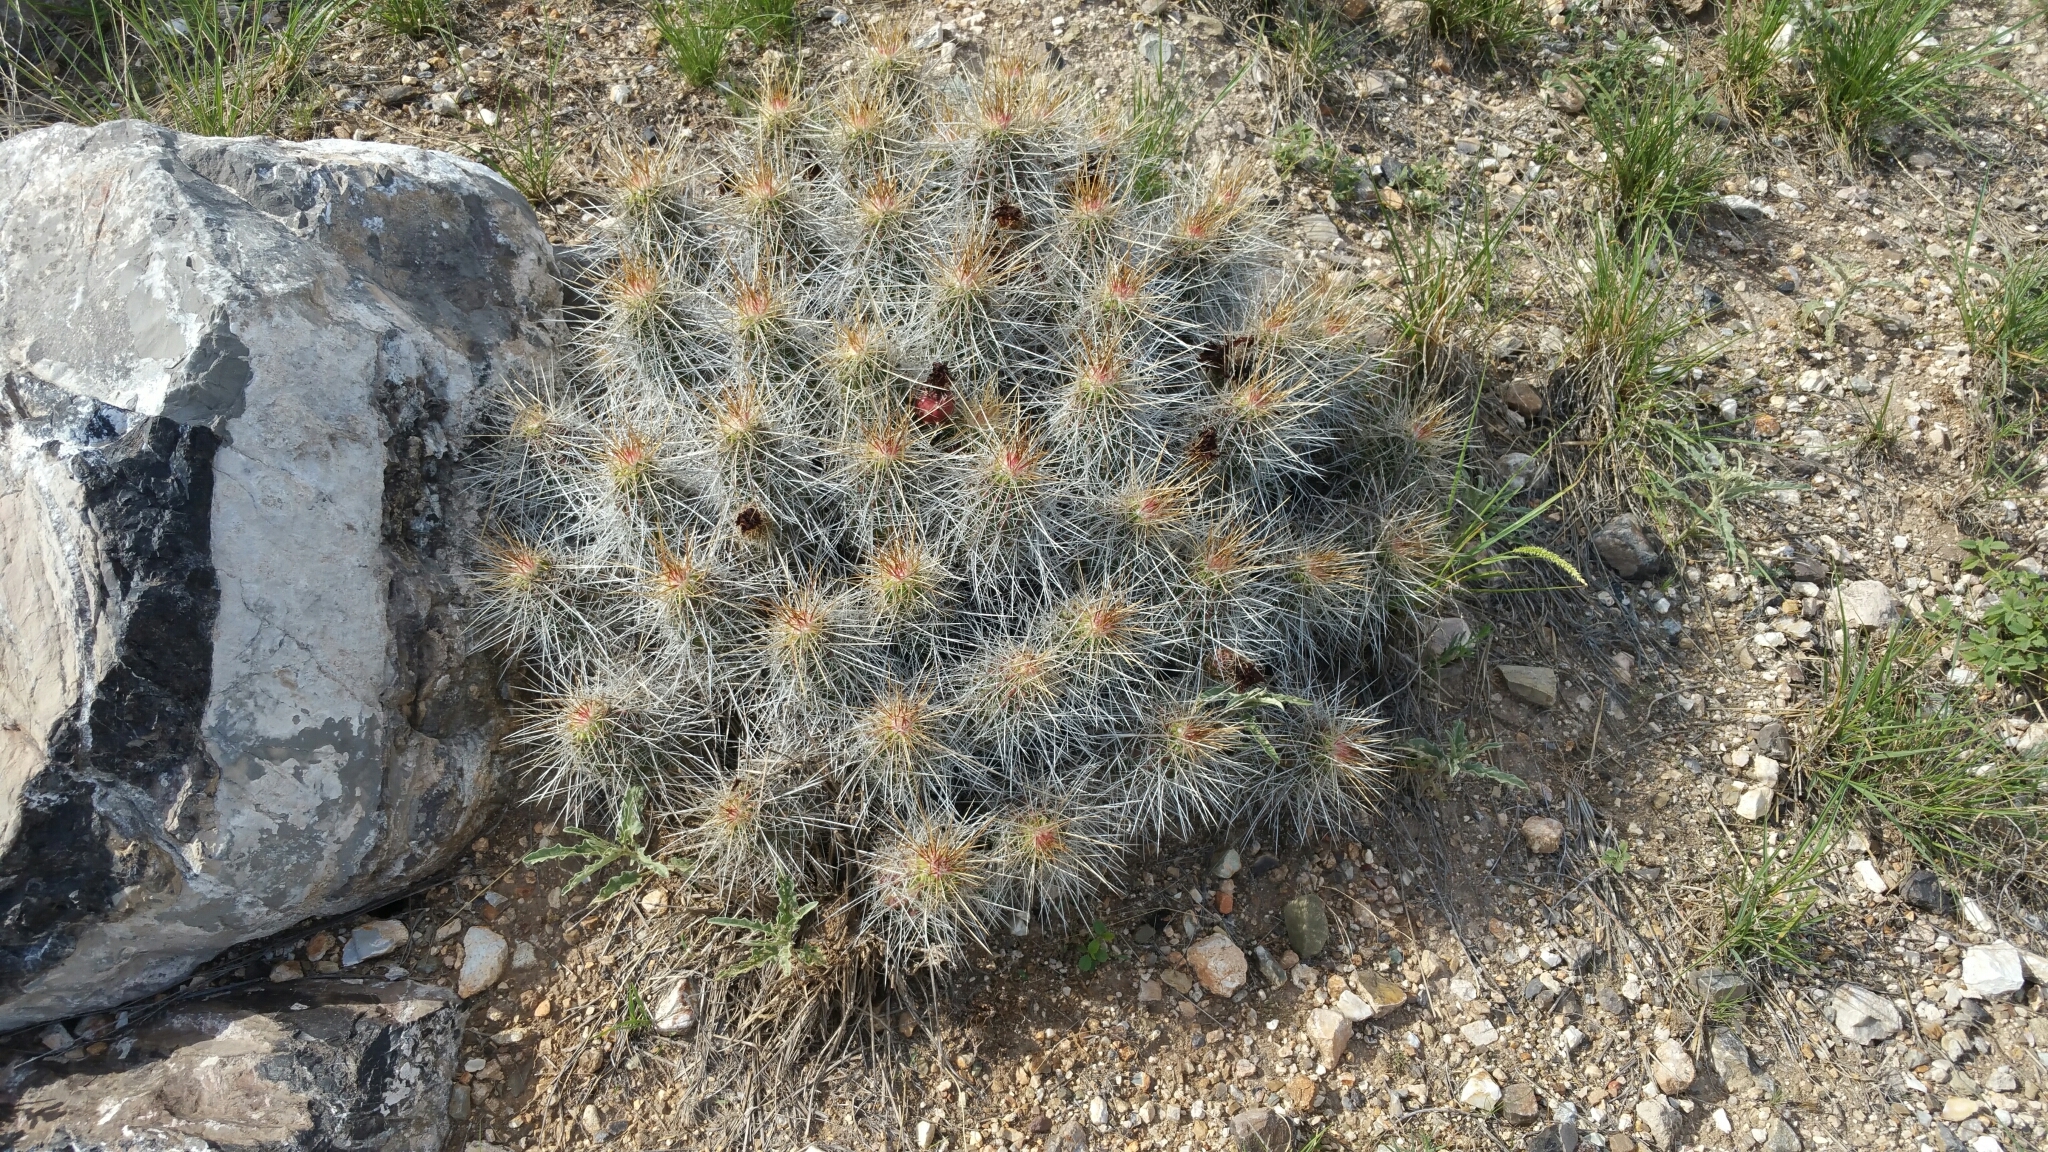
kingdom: Plantae
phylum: Tracheophyta
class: Magnoliopsida
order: Caryophyllales
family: Cactaceae
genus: Echinocereus
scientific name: Echinocereus stramineus
